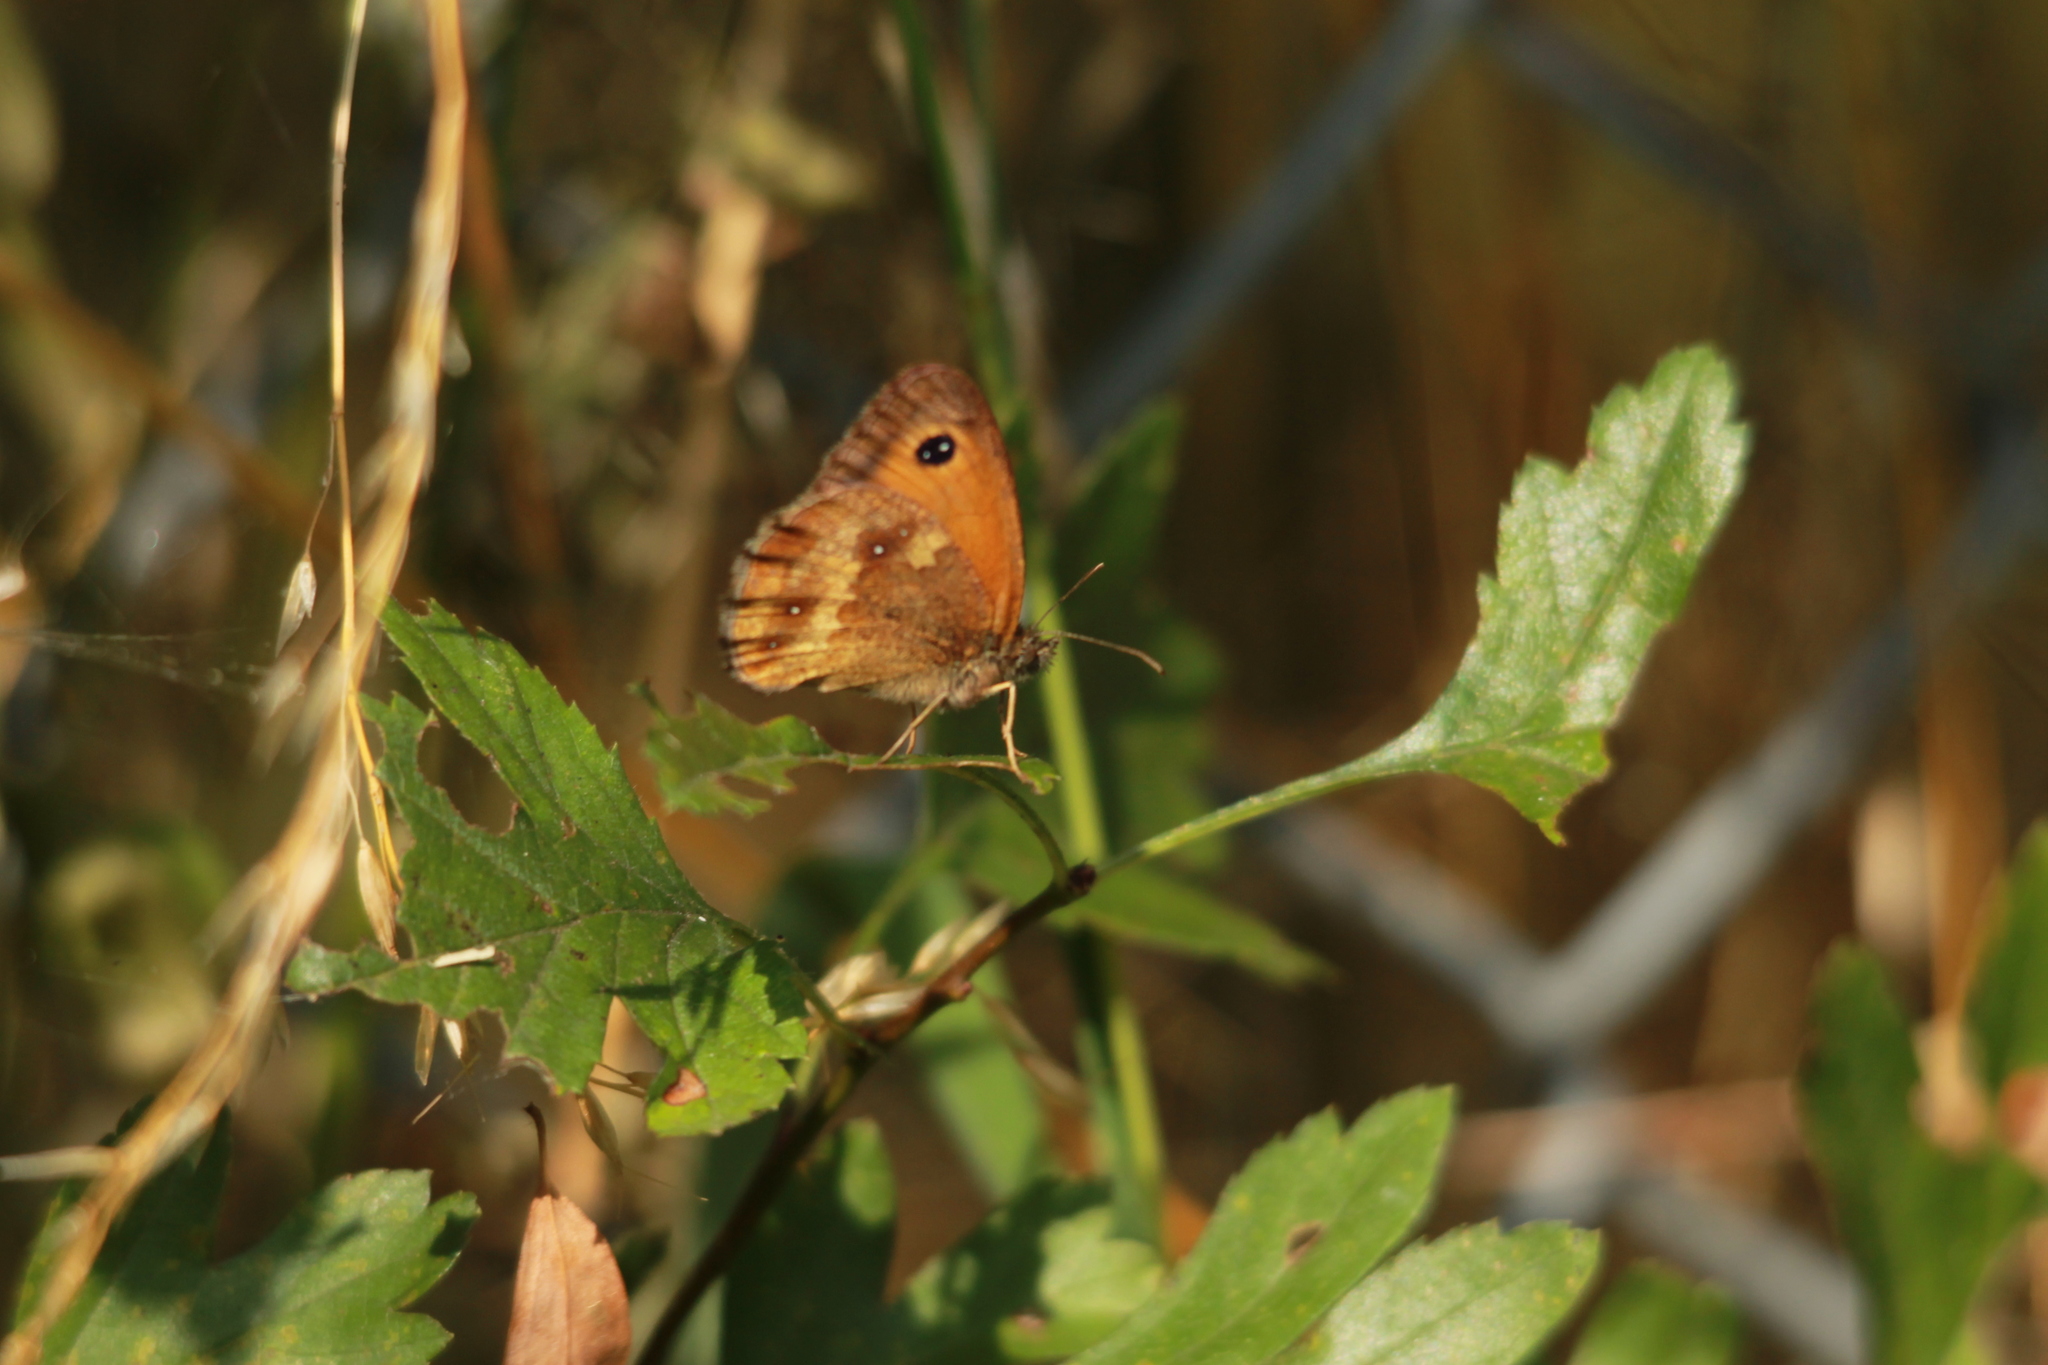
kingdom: Animalia
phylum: Arthropoda
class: Insecta
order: Lepidoptera
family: Nymphalidae
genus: Pyronia
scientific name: Pyronia tithonus
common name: Gatekeeper
